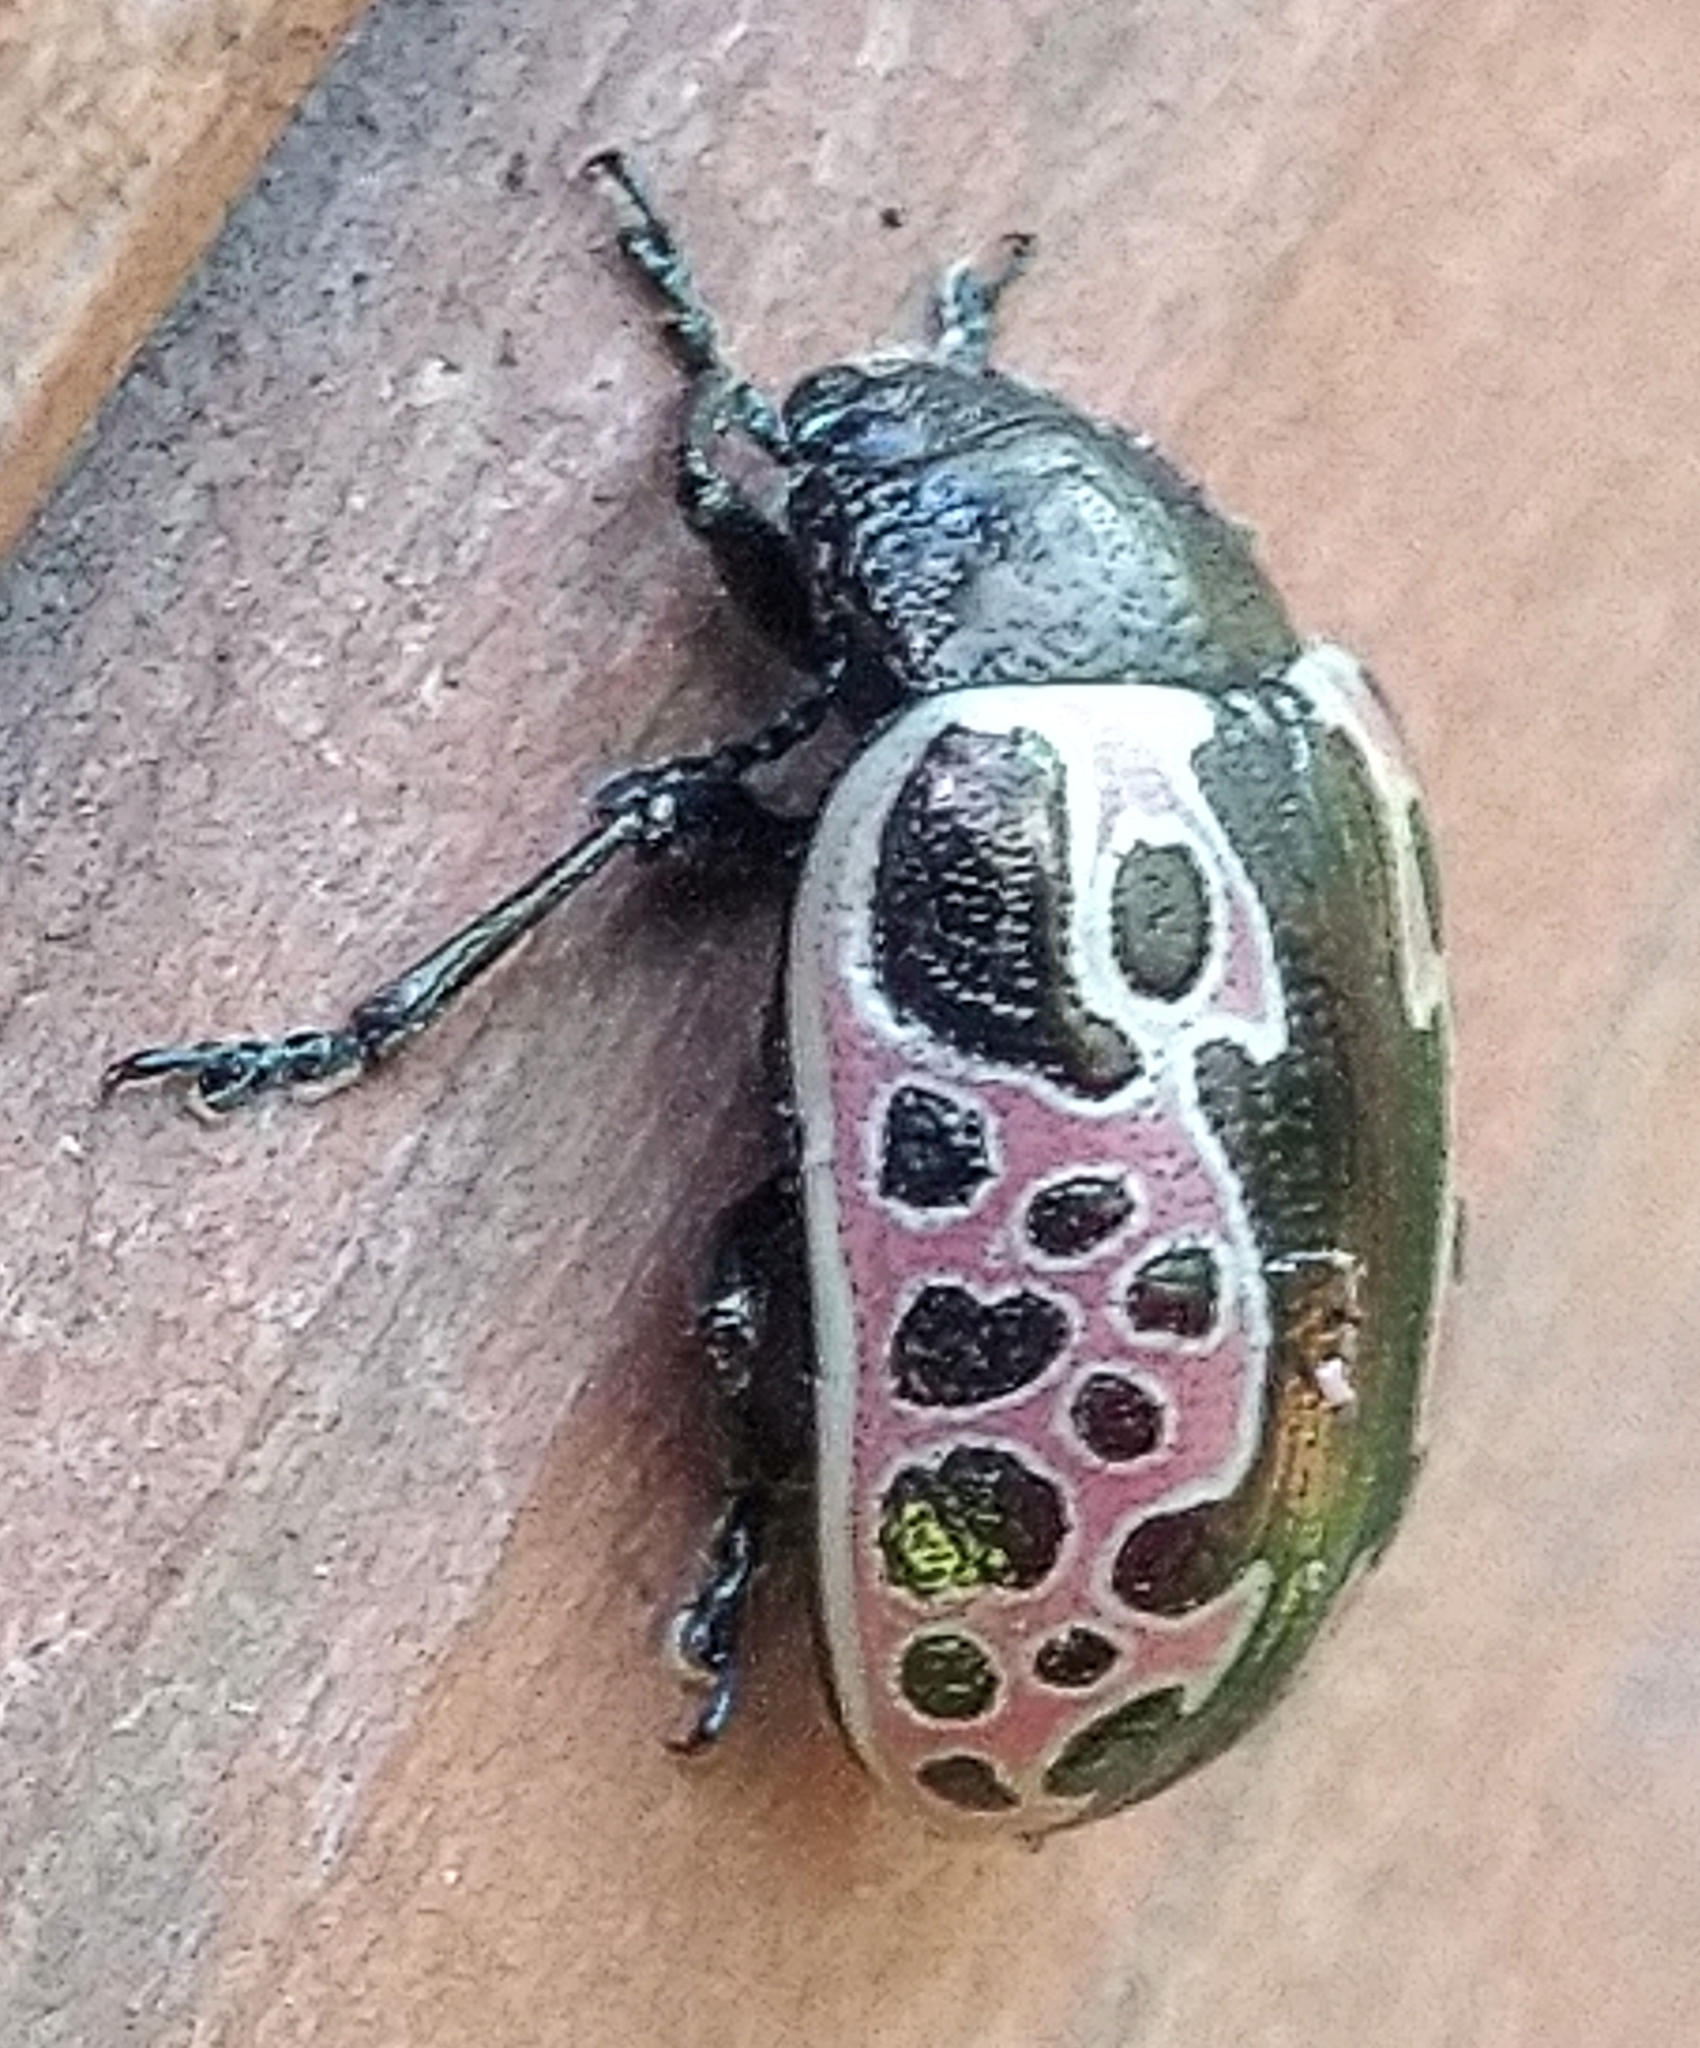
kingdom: Animalia
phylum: Arthropoda
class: Insecta
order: Coleoptera
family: Chrysomelidae
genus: Calligrapha
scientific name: Calligrapha diversa
